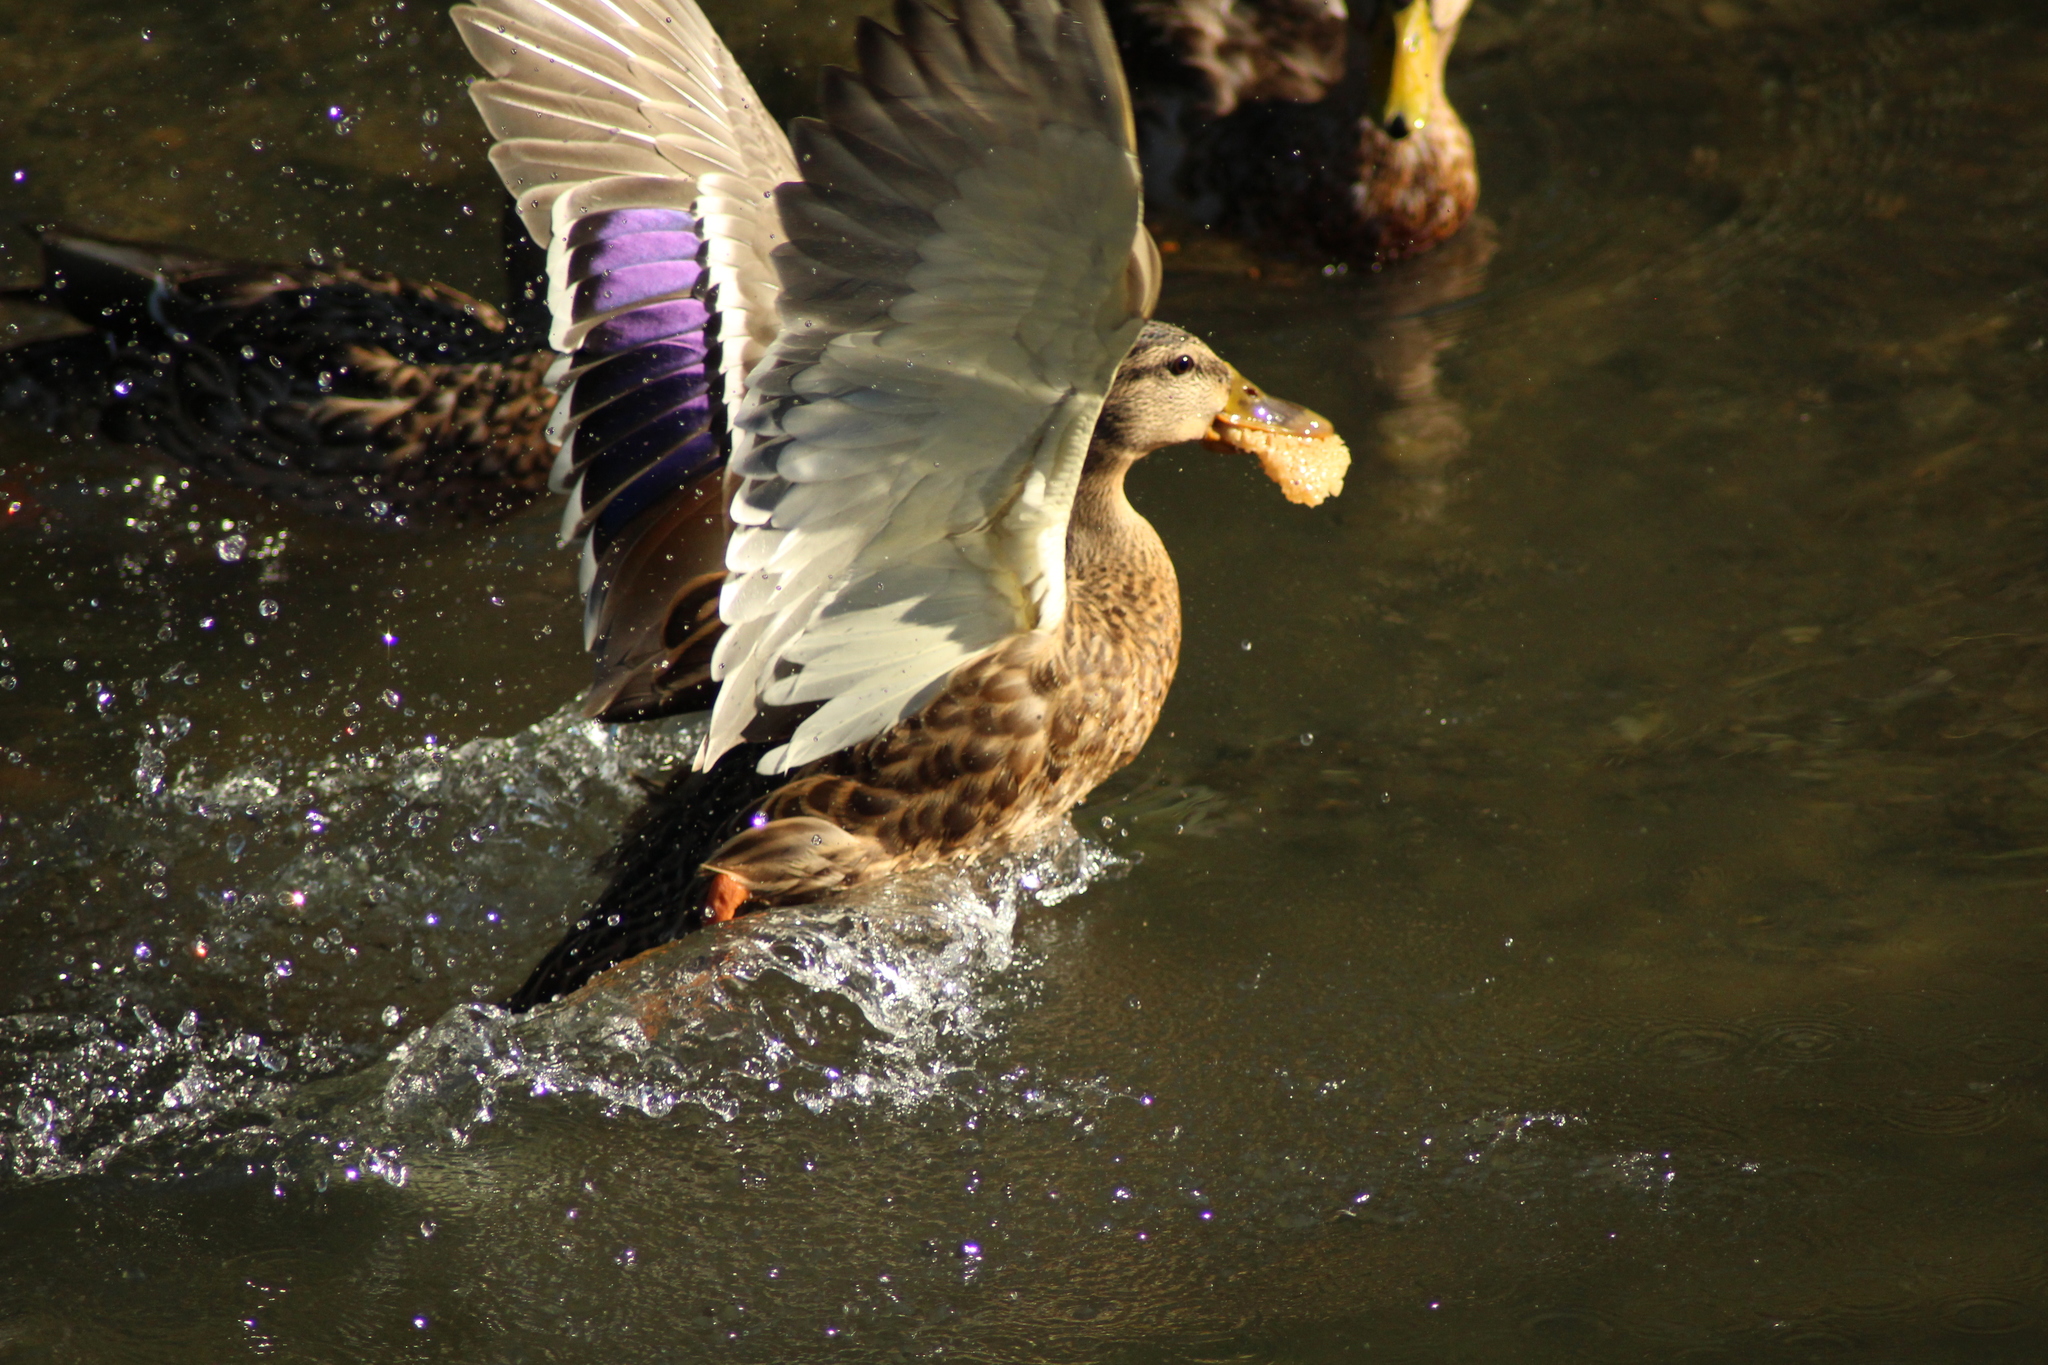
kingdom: Animalia
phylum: Chordata
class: Aves
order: Anseriformes
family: Anatidae
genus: Anas
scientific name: Anas platyrhynchos
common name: Mallard
